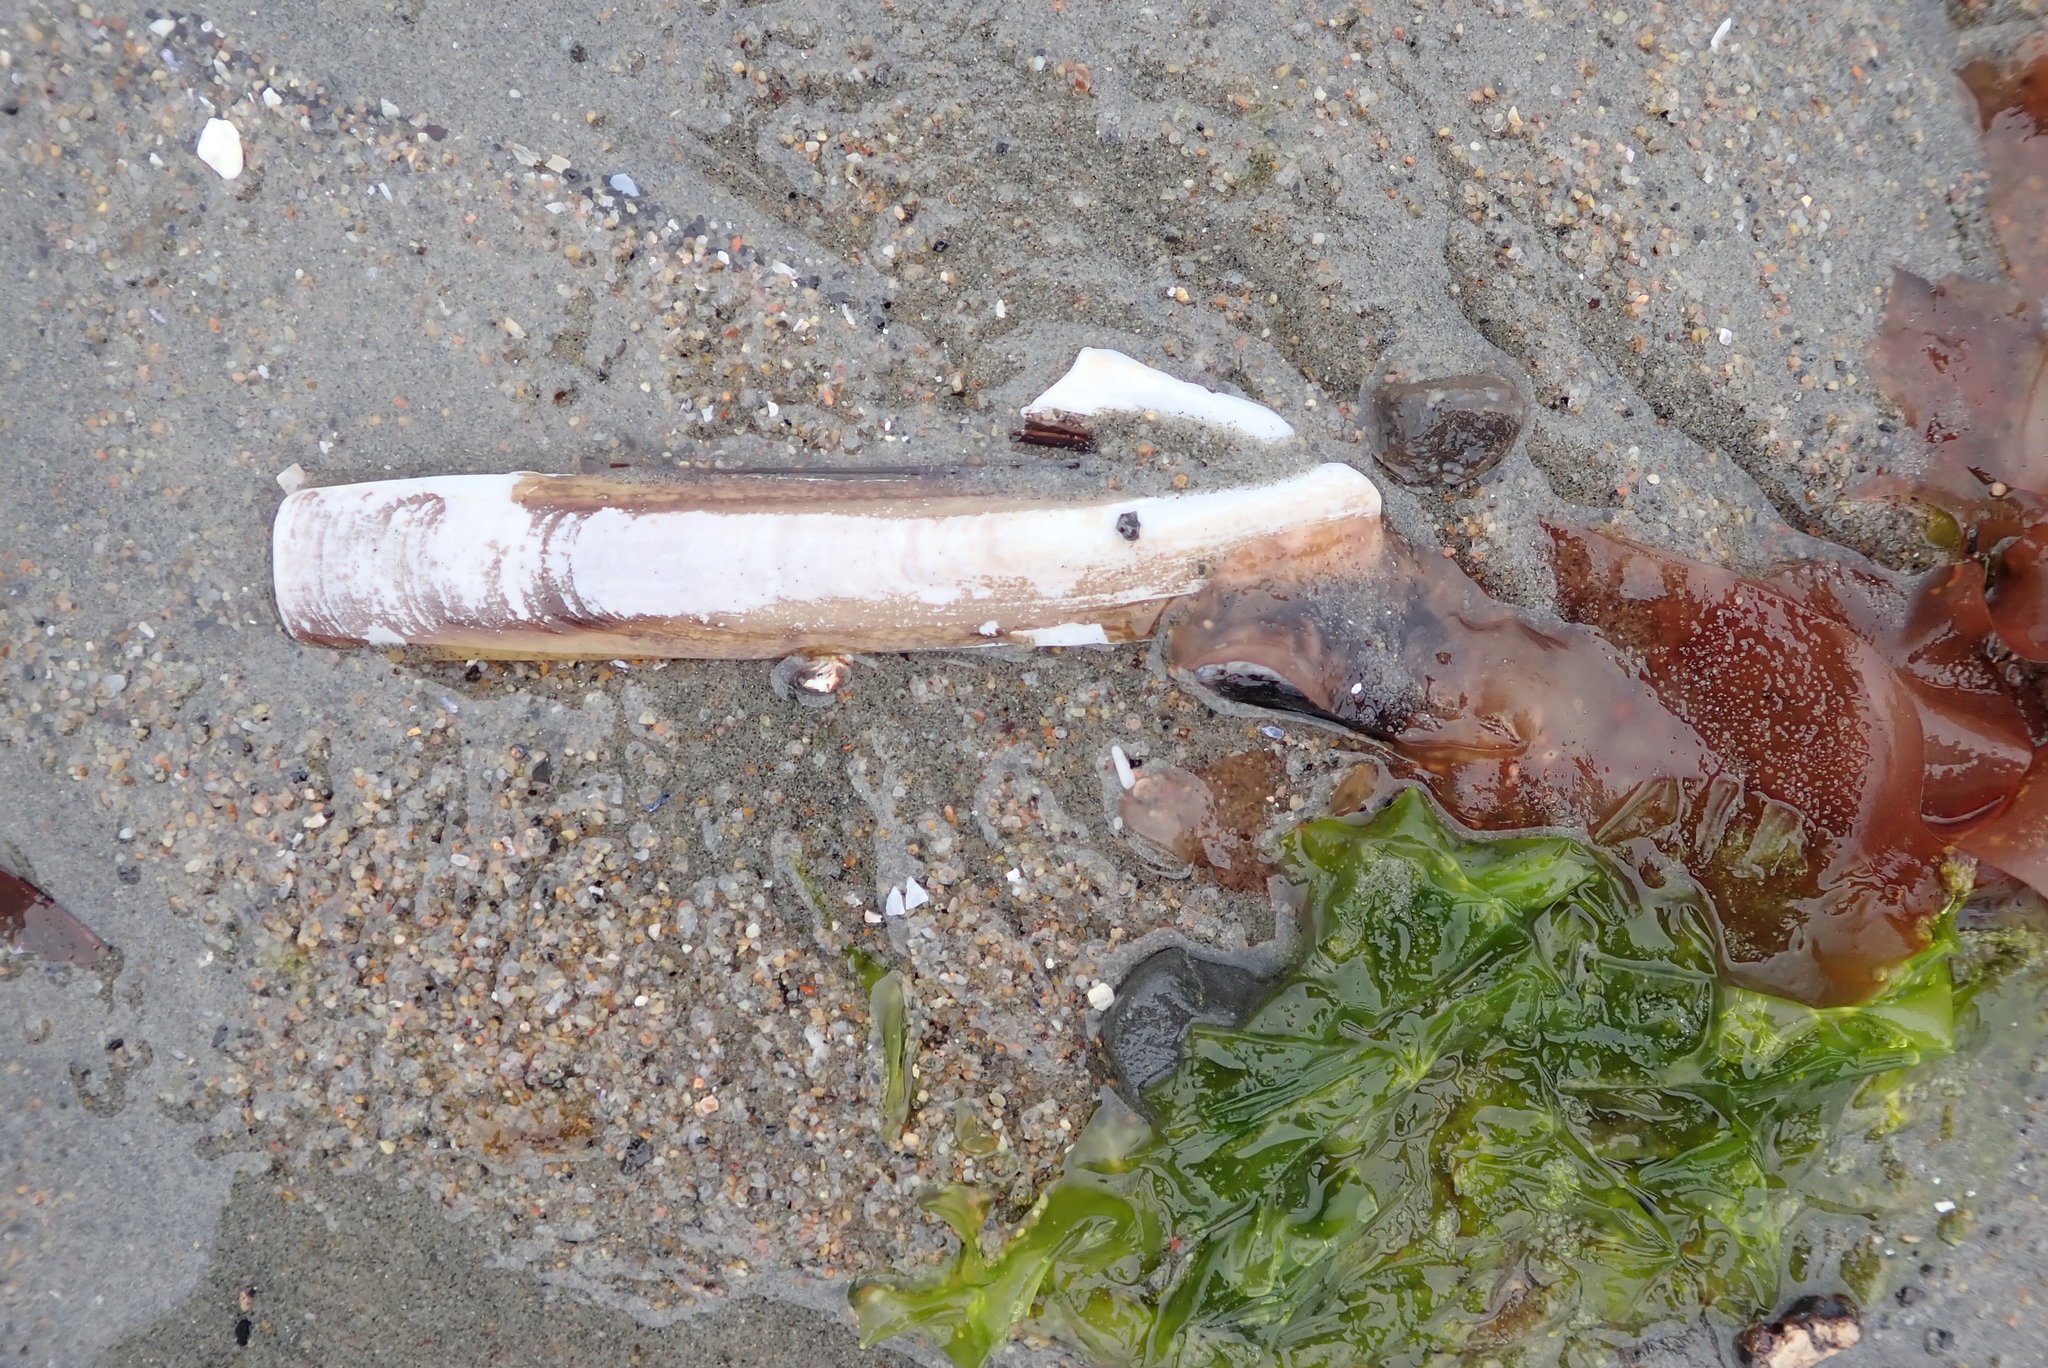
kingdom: Animalia
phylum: Mollusca
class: Bivalvia
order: Adapedonta
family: Pharidae
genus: Ensis
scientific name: Ensis leei
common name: American jack knife clam
